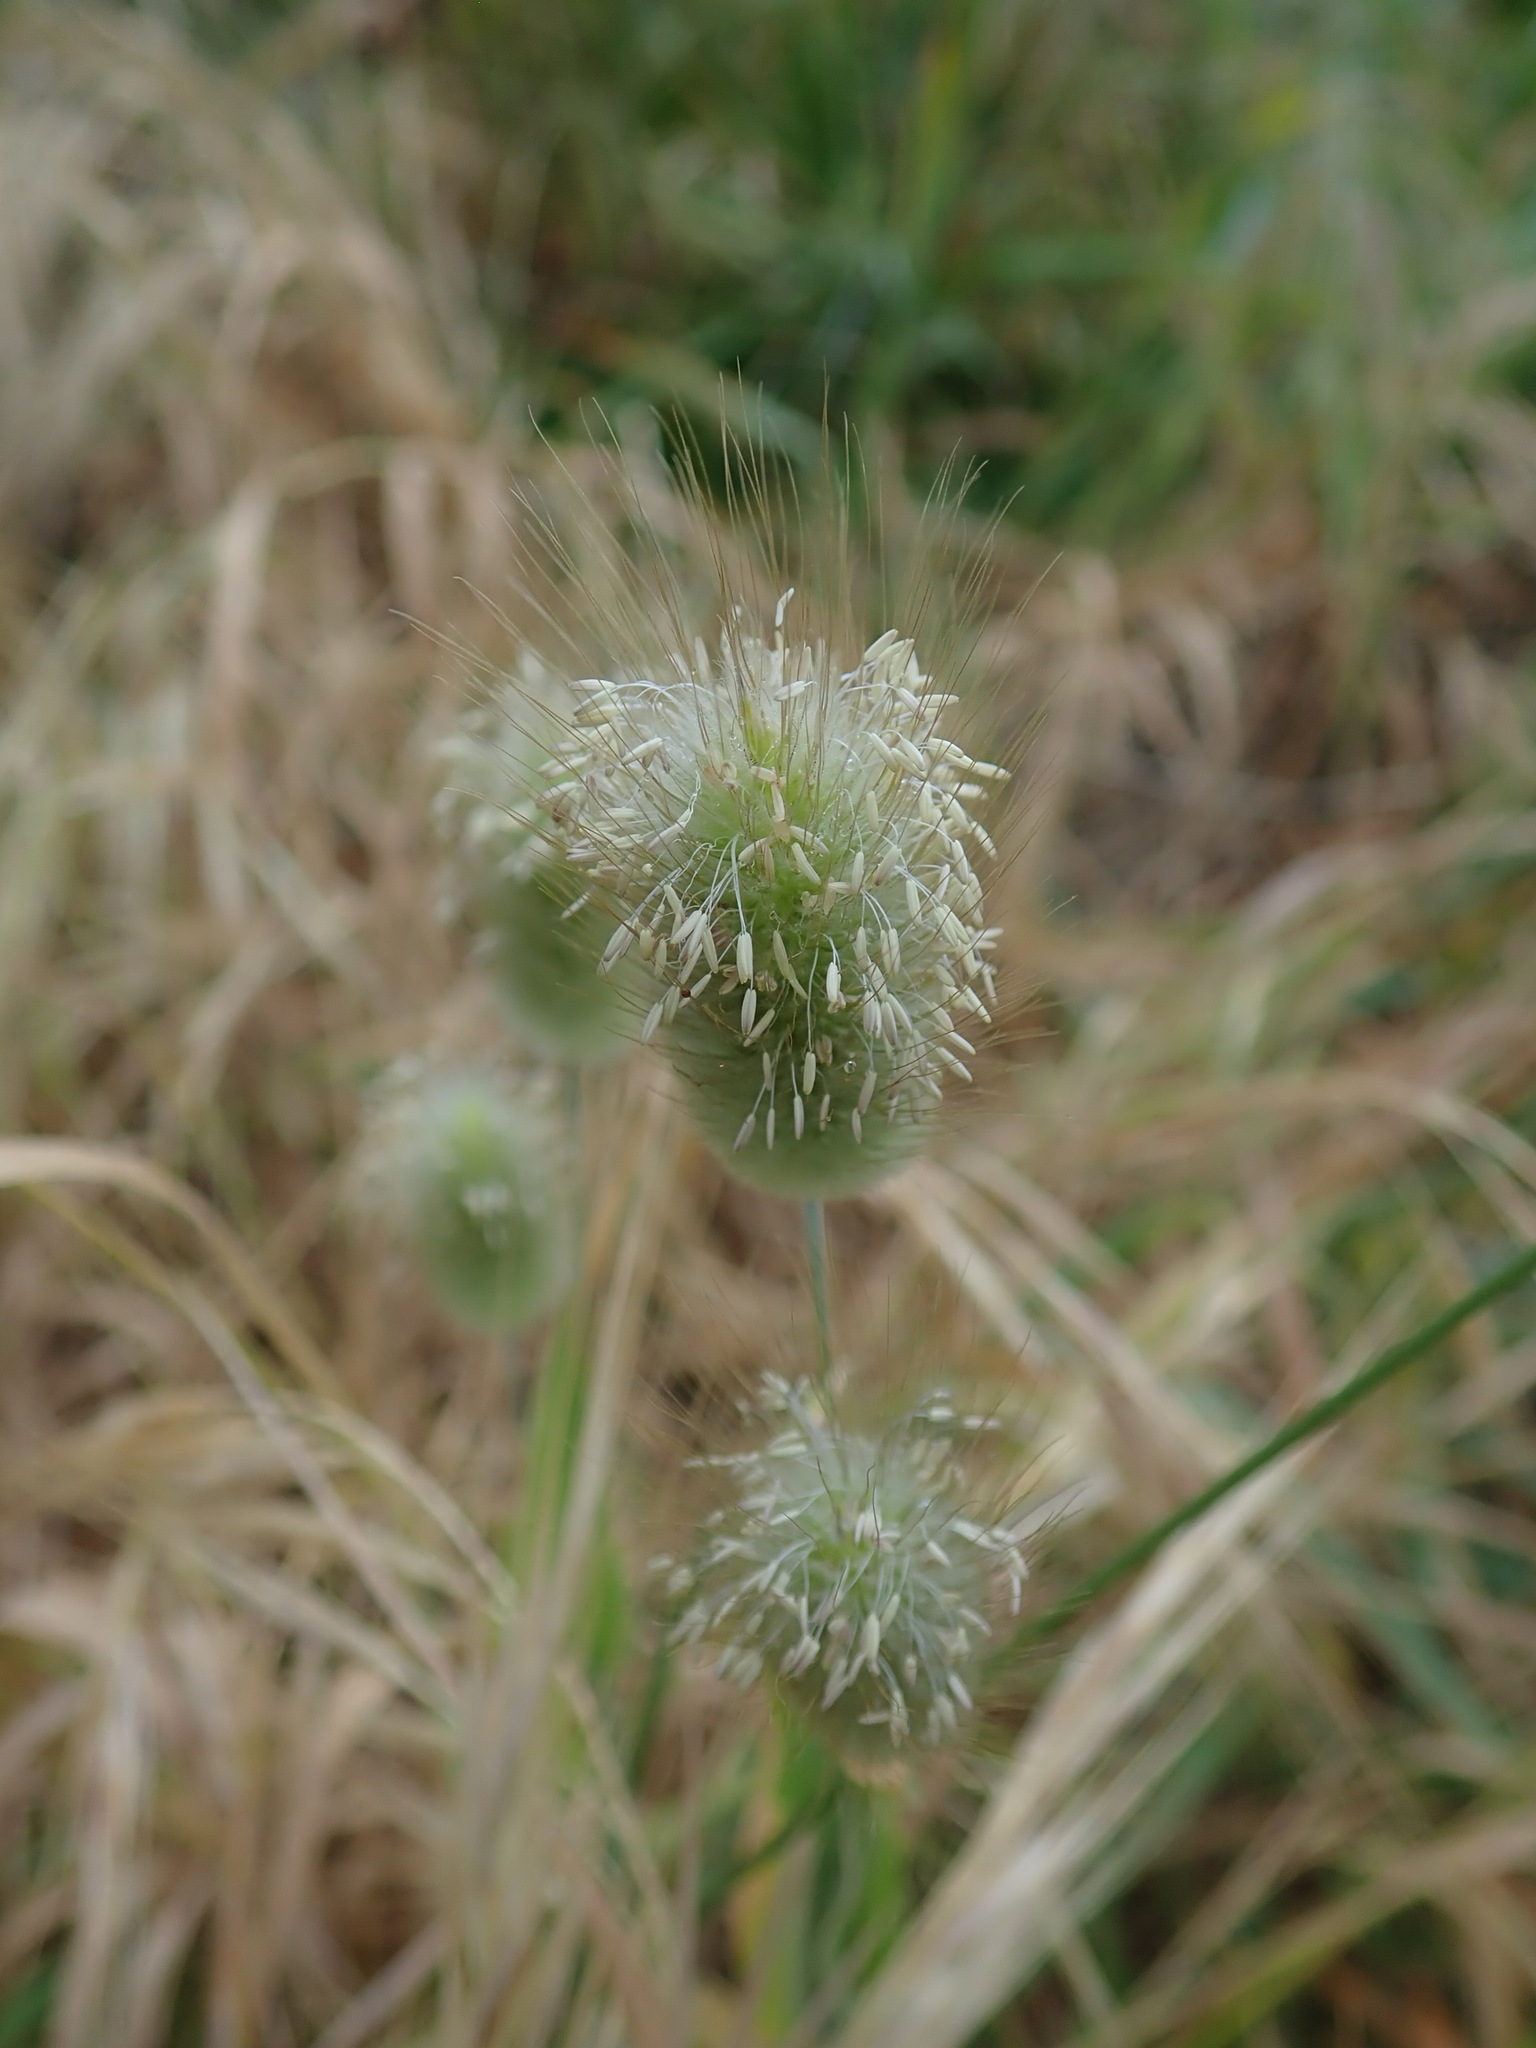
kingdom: Plantae
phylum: Tracheophyta
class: Liliopsida
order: Poales
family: Poaceae
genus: Lagurus
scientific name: Lagurus ovatus
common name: Hare's-tail
